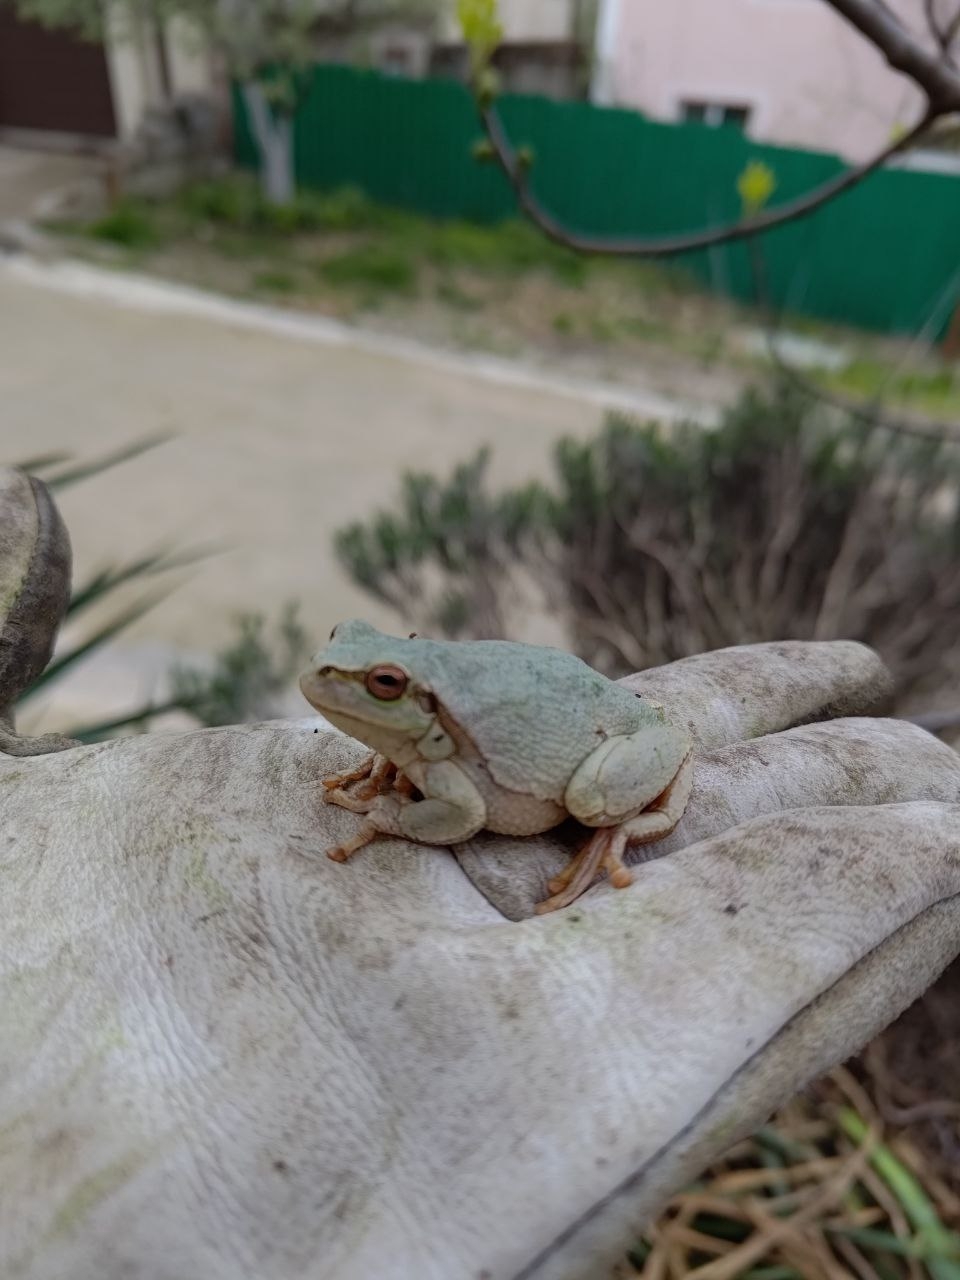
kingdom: Animalia
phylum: Chordata
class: Amphibia
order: Anura
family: Hylidae
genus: Hyla
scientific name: Hyla orientalis
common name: Caucasian treefrog
